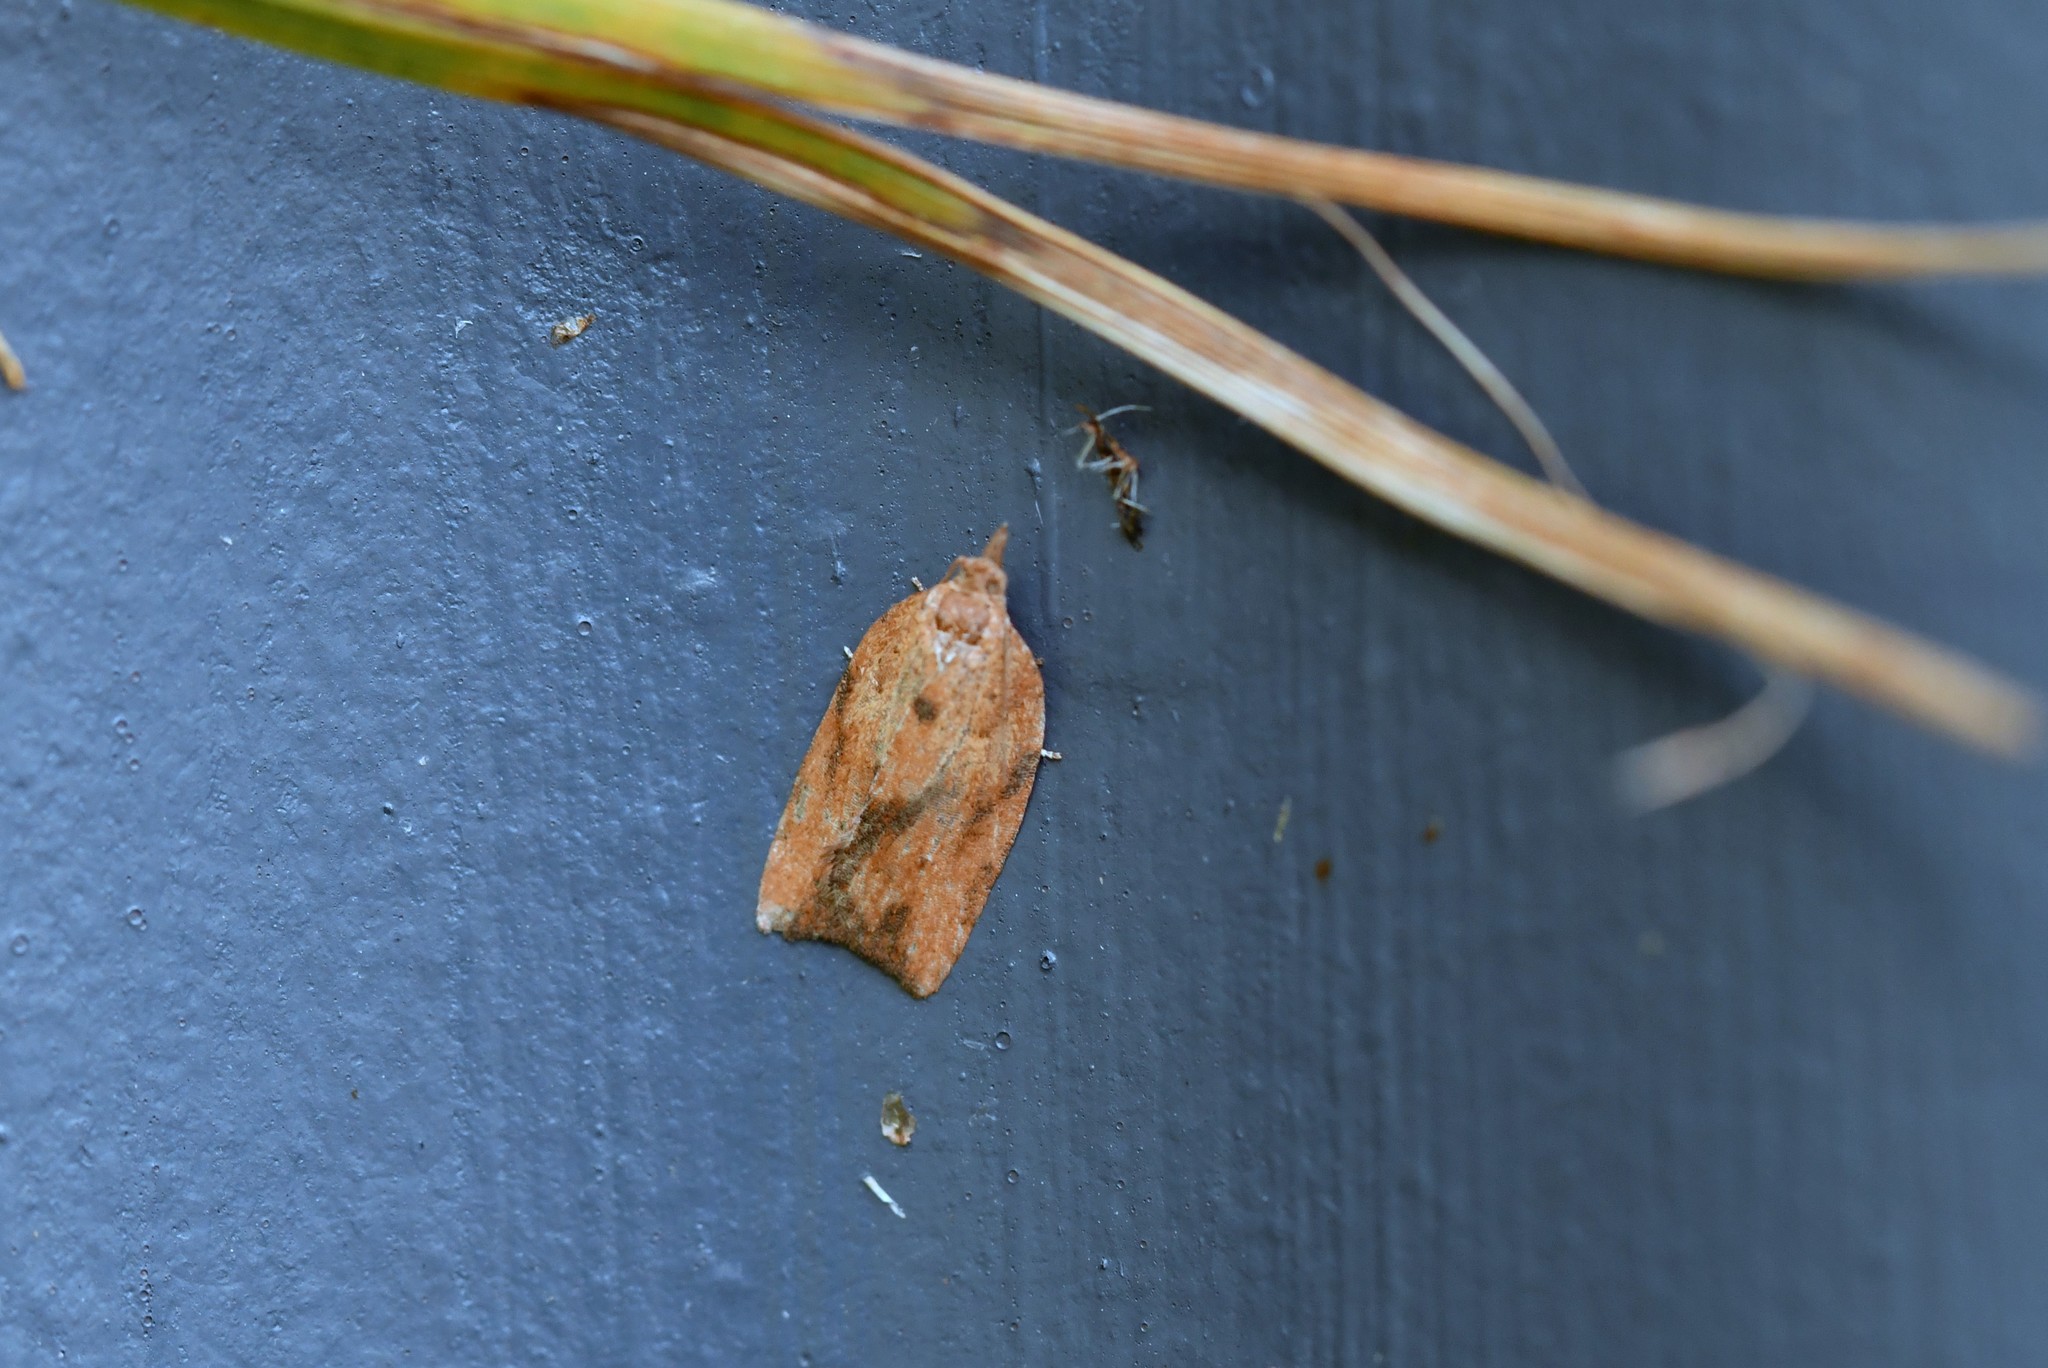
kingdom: Animalia
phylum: Arthropoda
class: Insecta
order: Lepidoptera
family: Tortricidae
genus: Epiphyas
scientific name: Epiphyas postvittana
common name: Light brown apple moth
